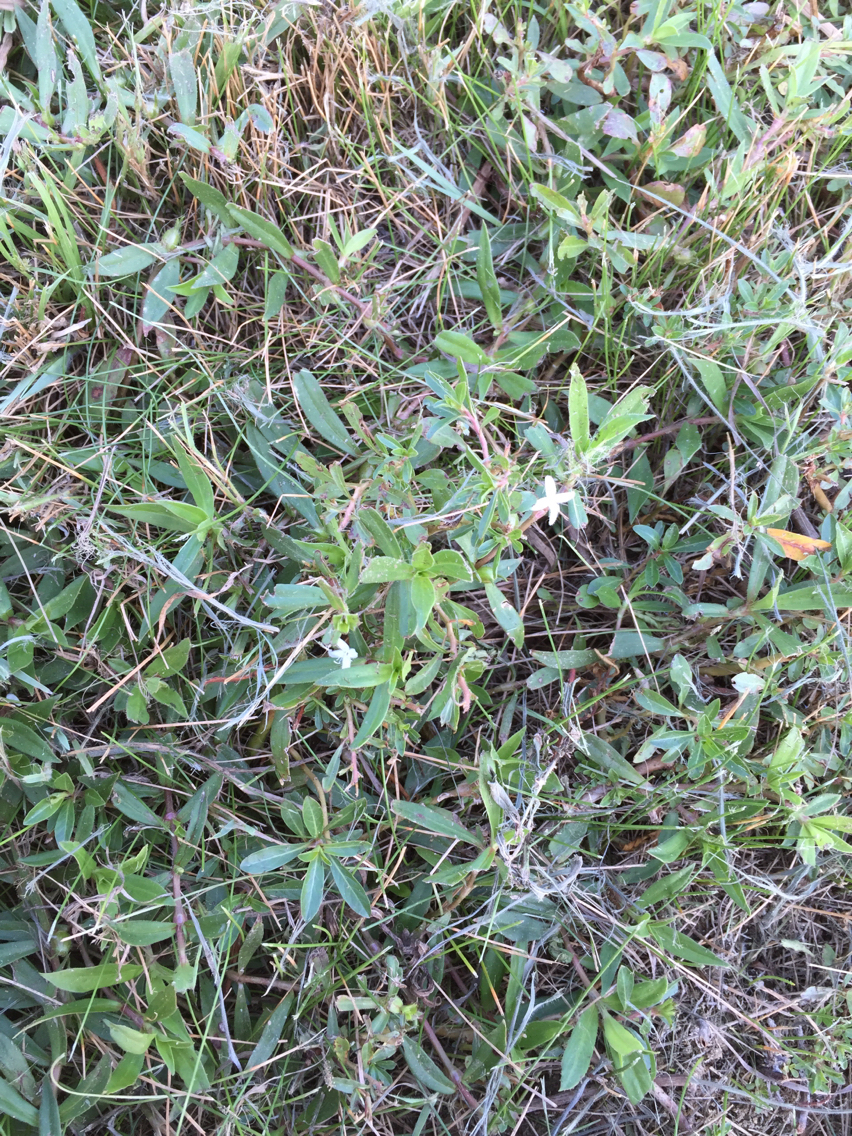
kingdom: Plantae
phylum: Tracheophyta
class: Magnoliopsida
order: Gentianales
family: Rubiaceae
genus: Diodia
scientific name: Diodia virginiana
